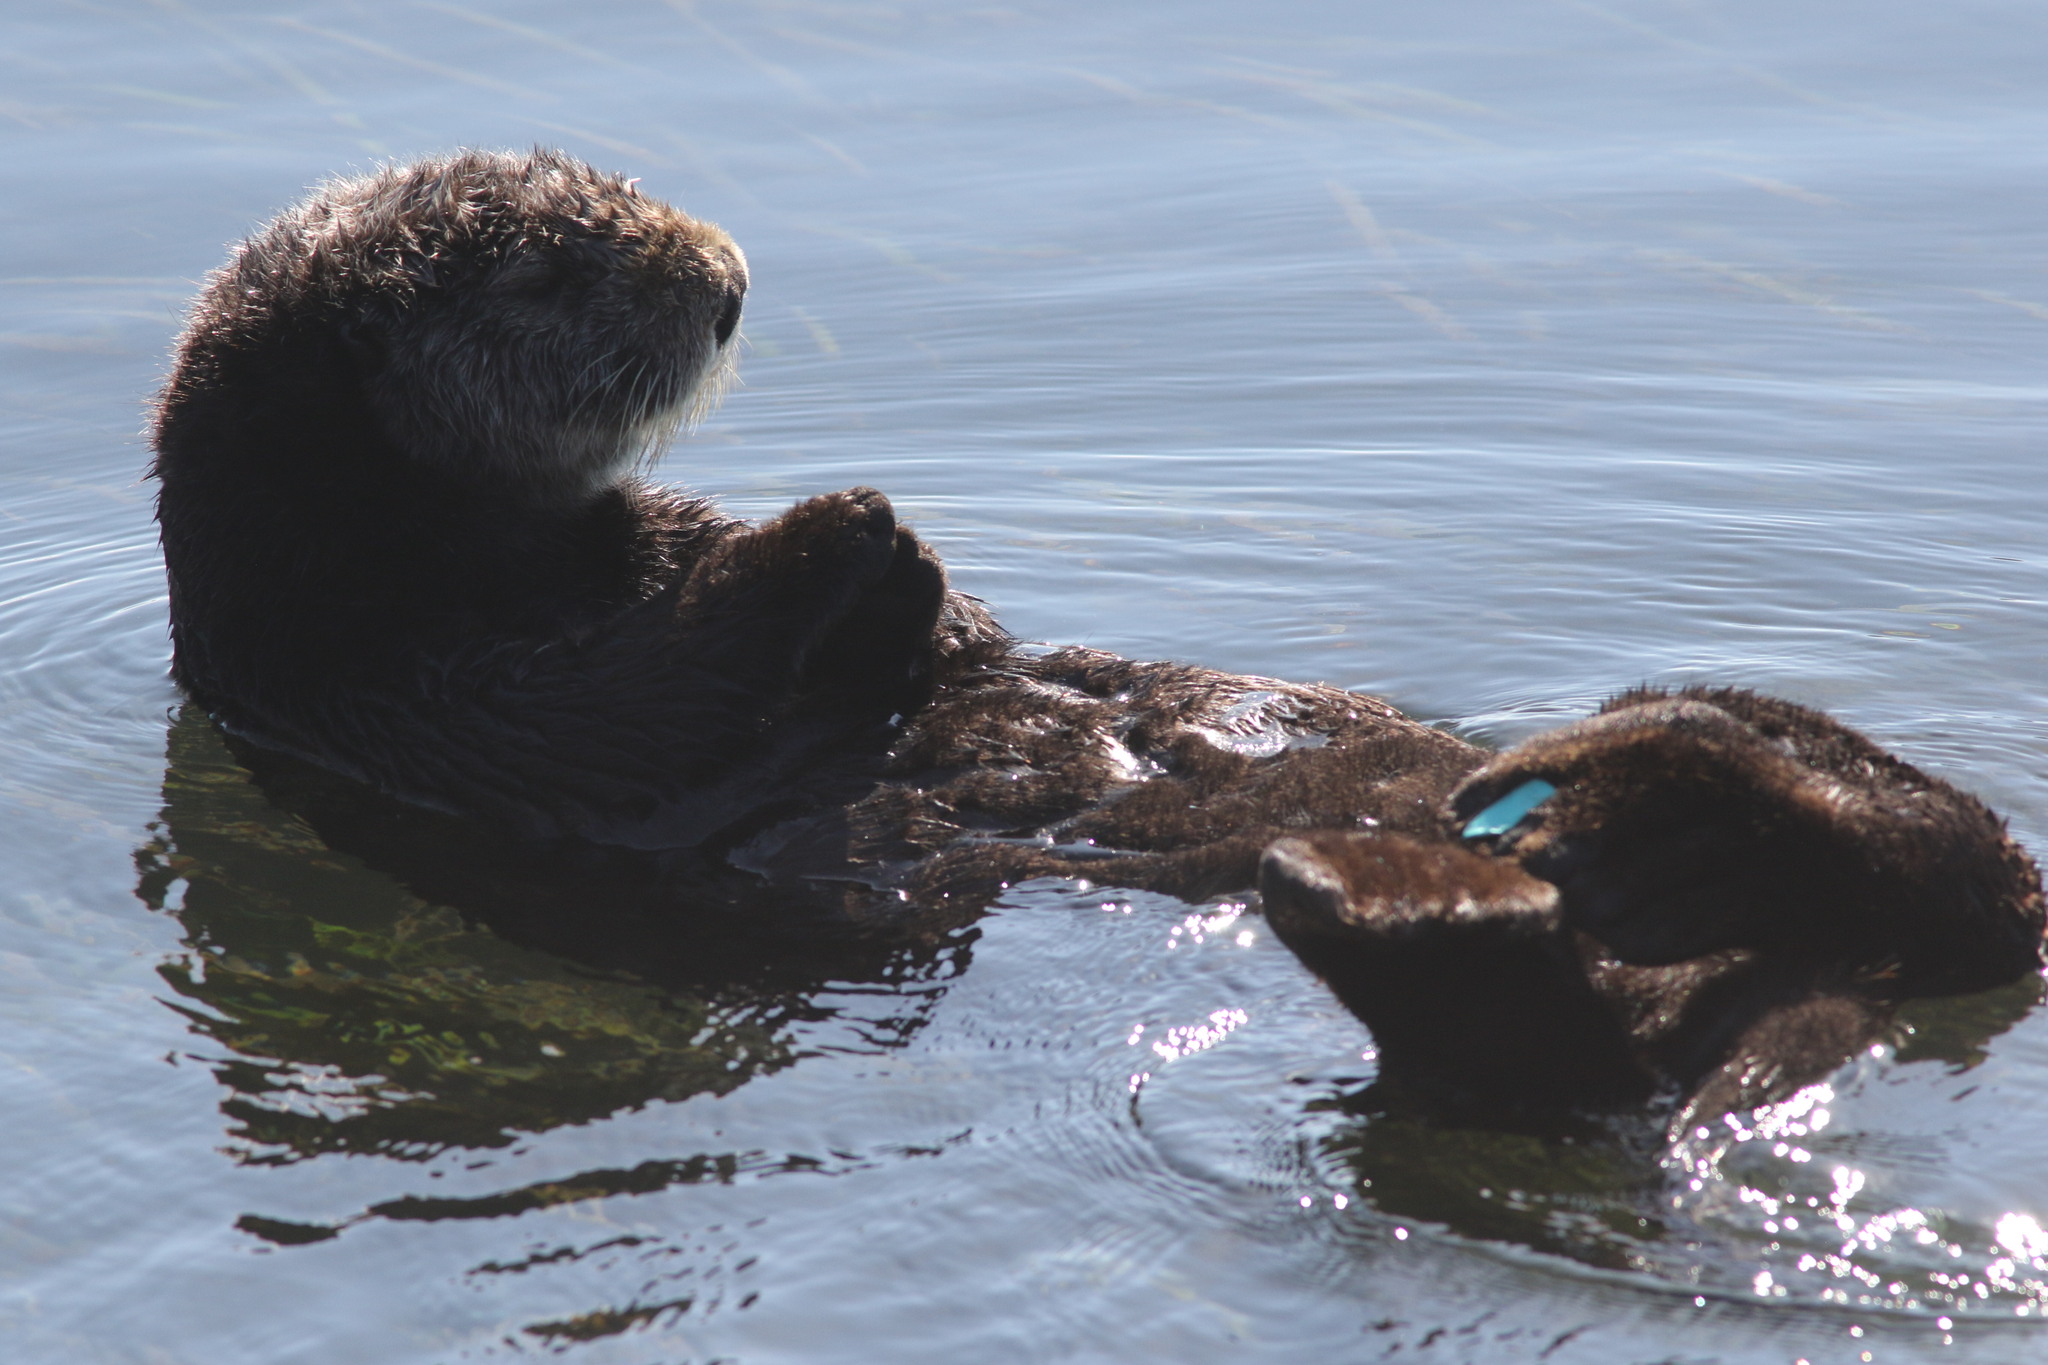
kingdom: Animalia
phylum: Chordata
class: Mammalia
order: Carnivora
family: Mustelidae
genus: Enhydra
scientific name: Enhydra lutris
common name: Sea otter
